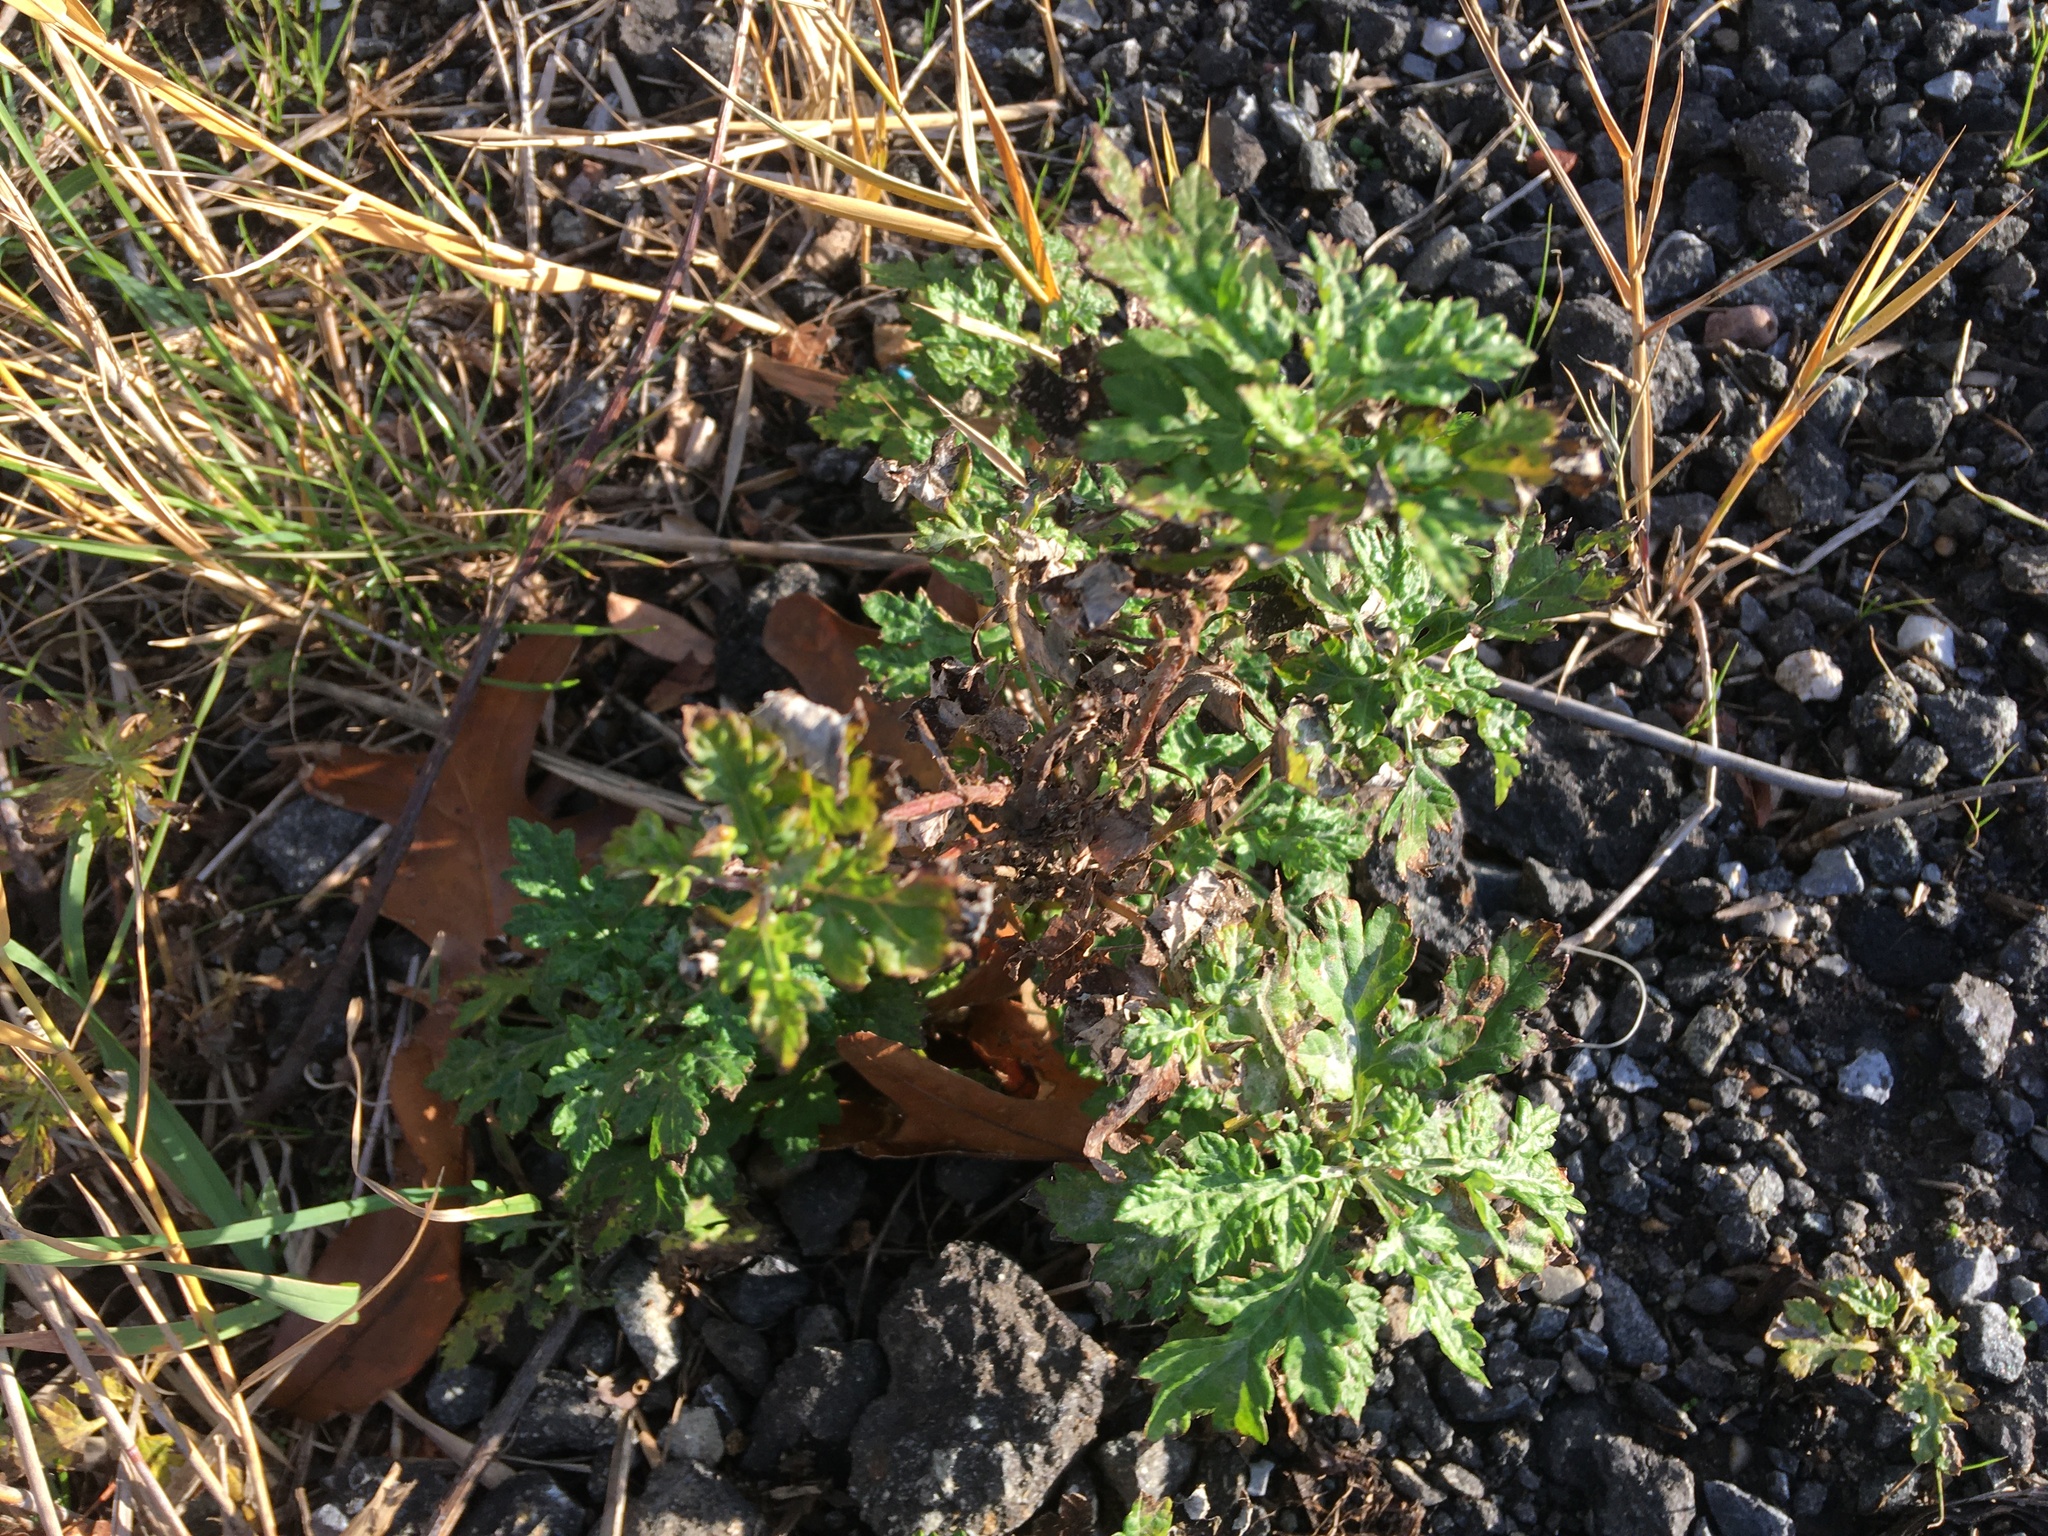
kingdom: Plantae
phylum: Tracheophyta
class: Magnoliopsida
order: Asterales
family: Asteraceae
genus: Artemisia
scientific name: Artemisia vulgaris
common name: Mugwort
